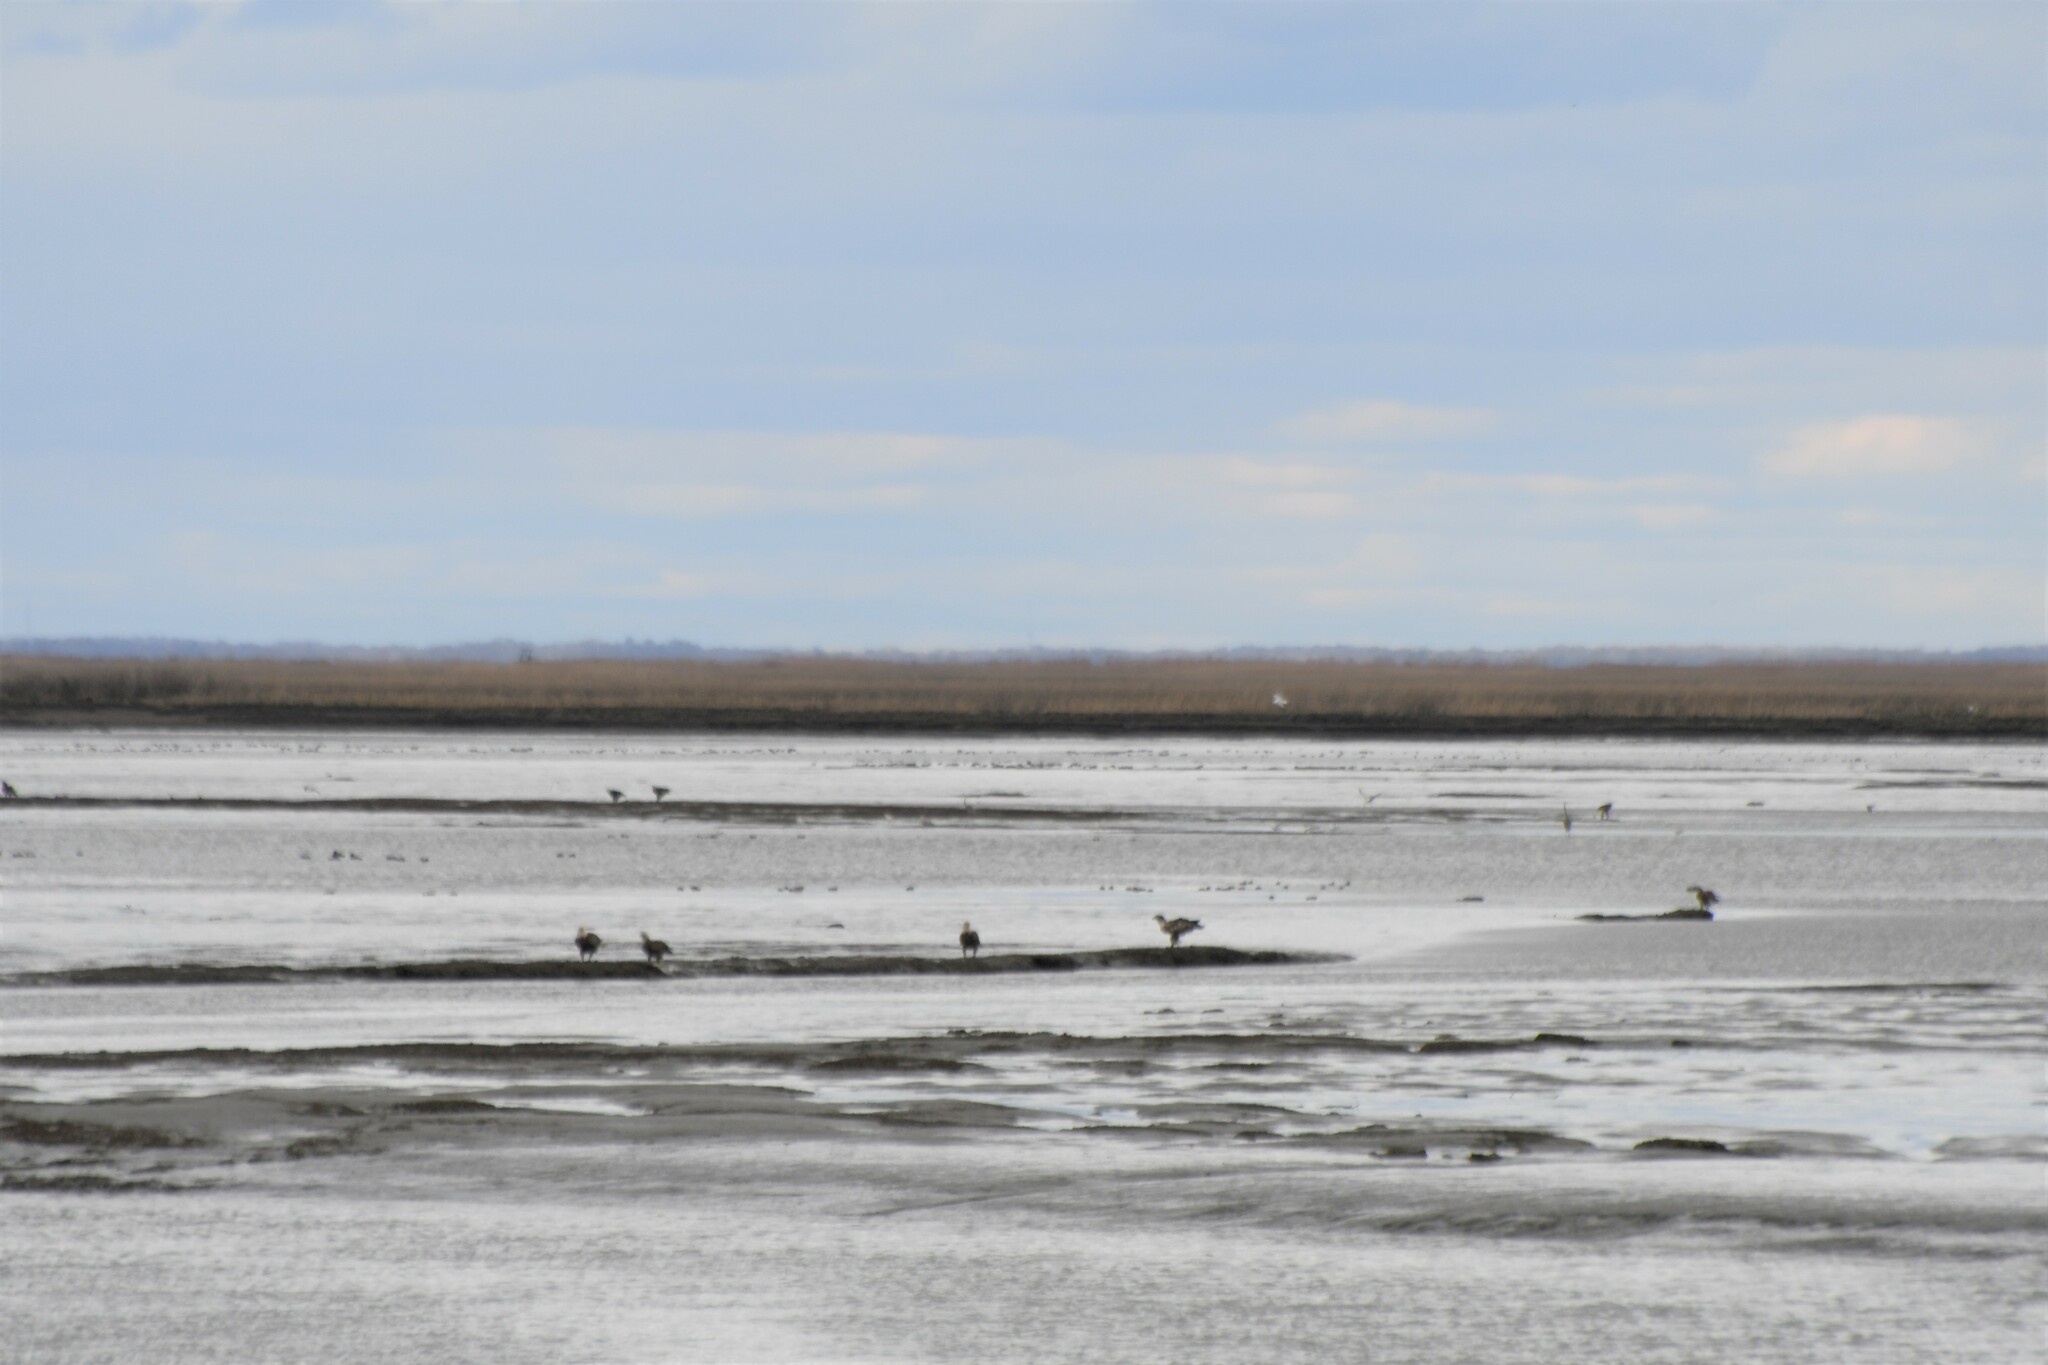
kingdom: Animalia
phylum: Chordata
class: Aves
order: Accipitriformes
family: Accipitridae
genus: Haliaeetus
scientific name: Haliaeetus leucocephalus
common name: Bald eagle
